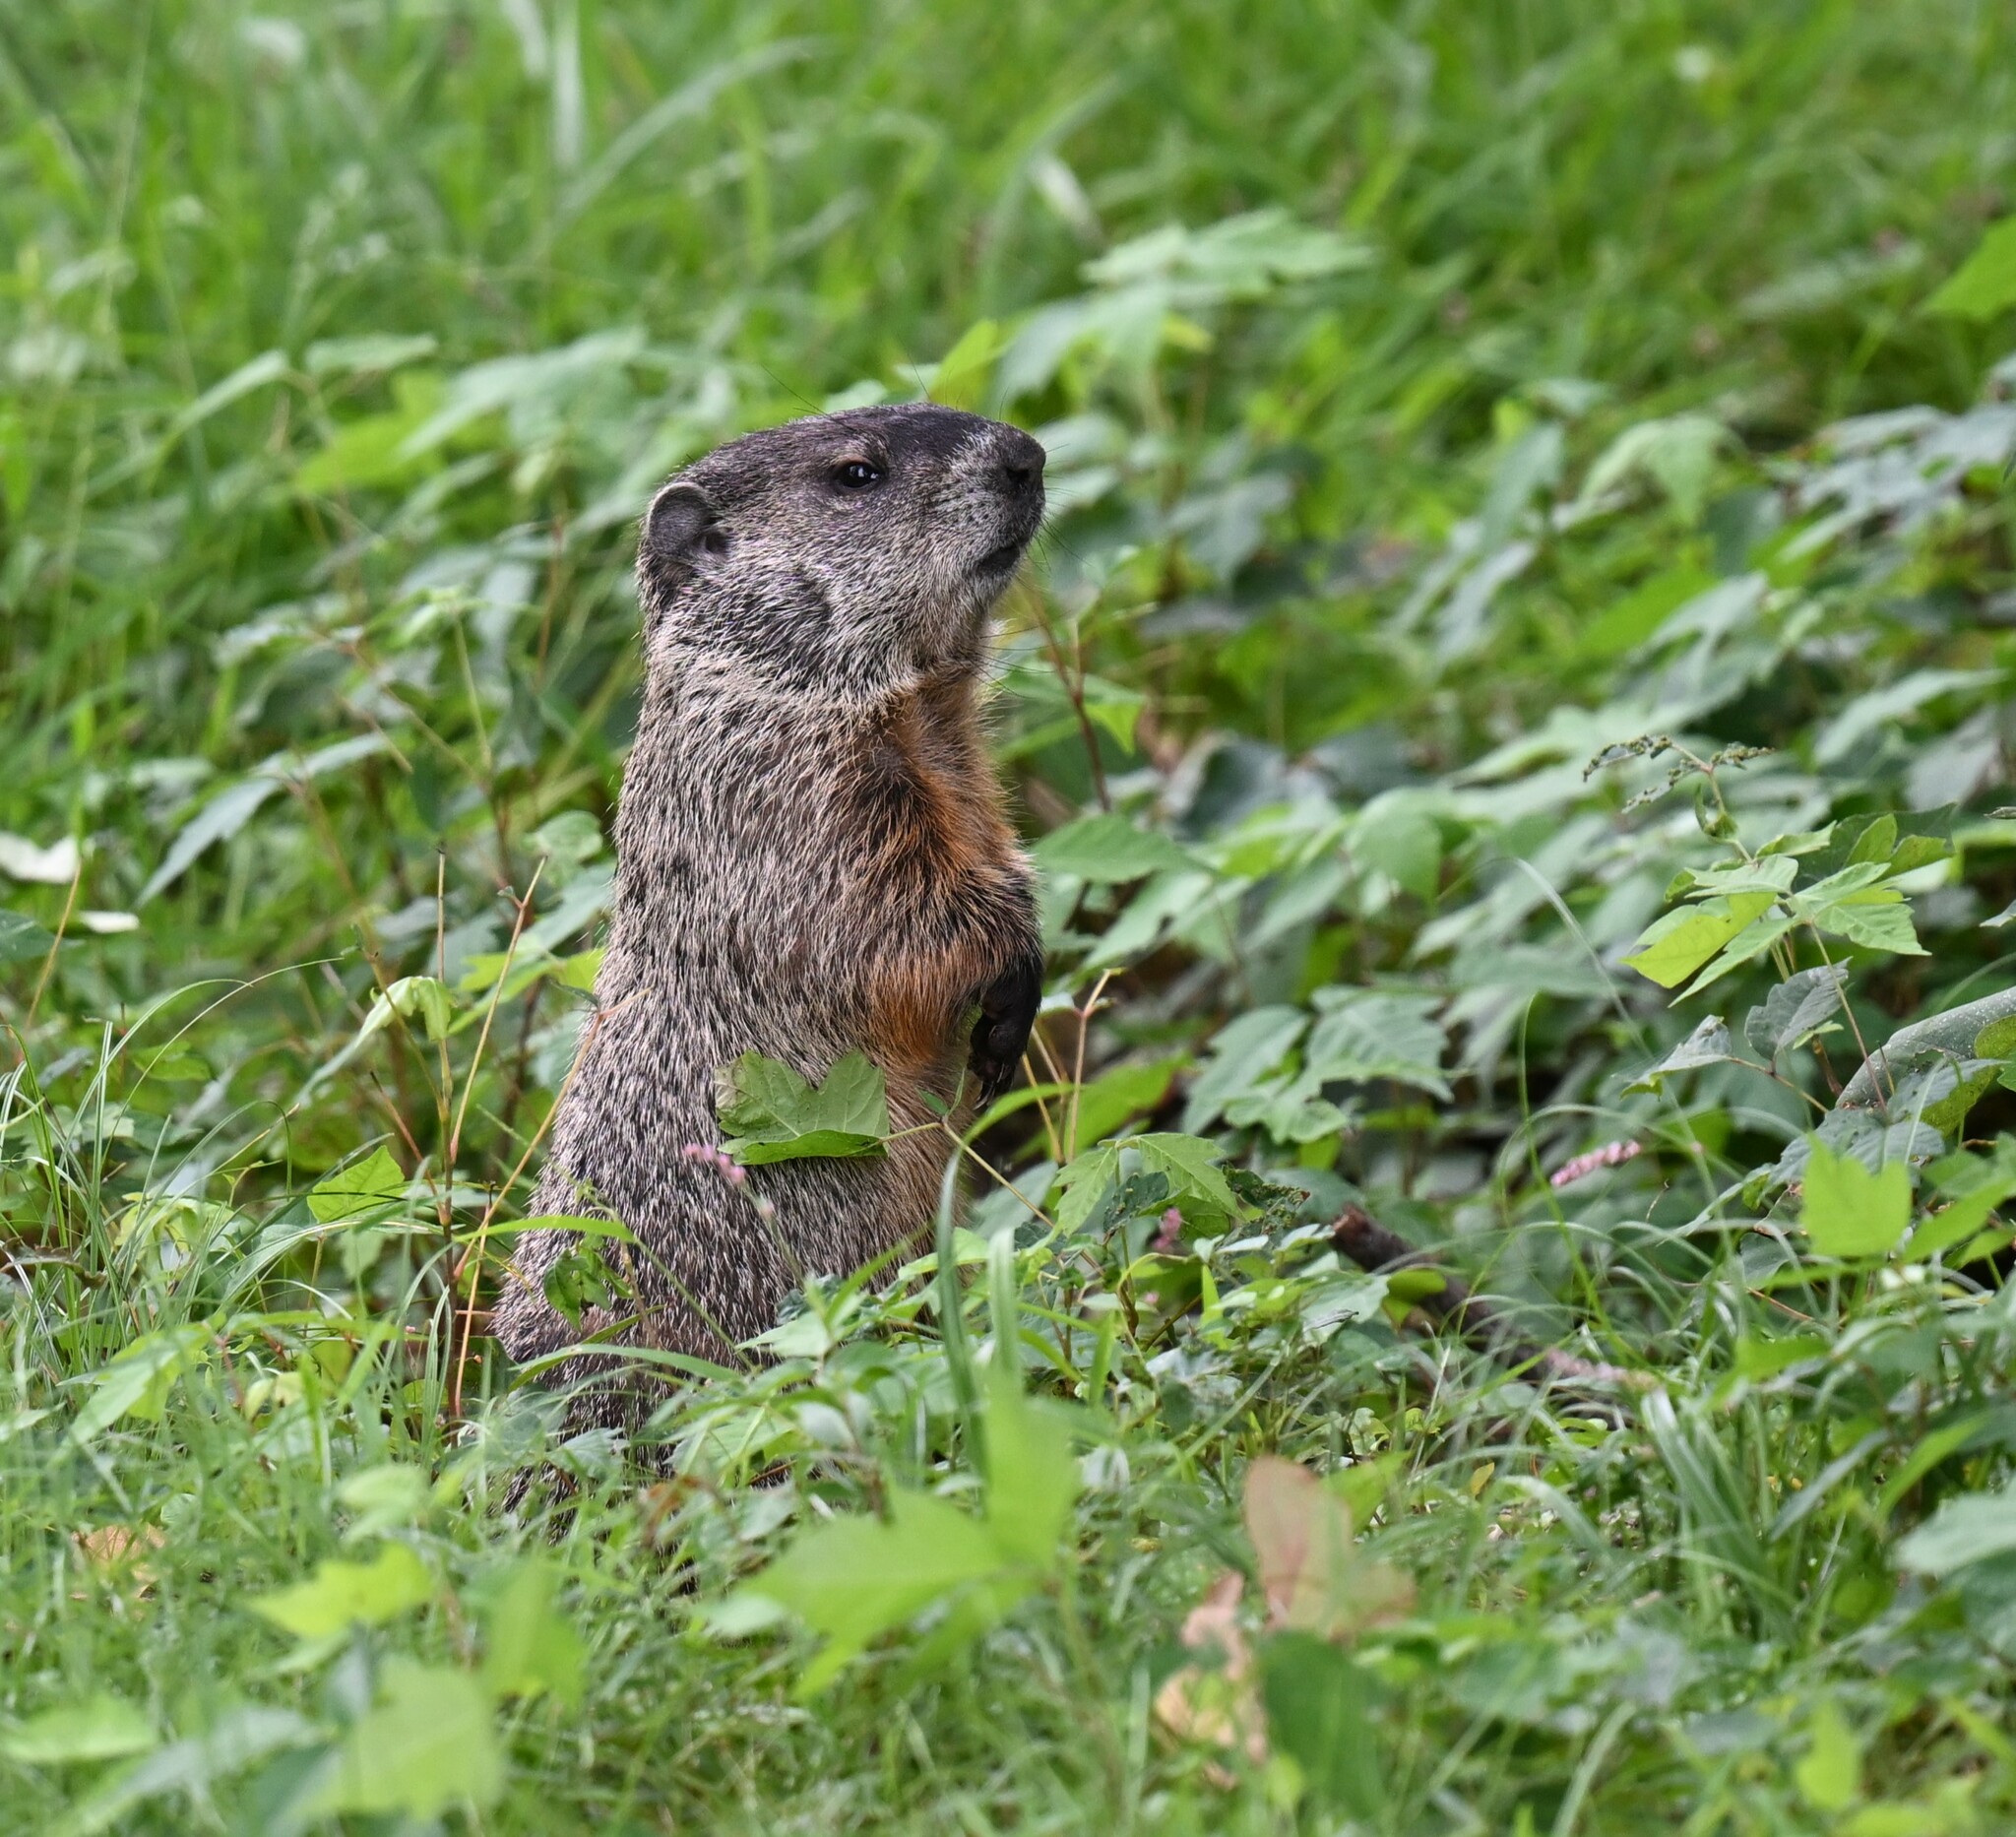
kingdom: Animalia
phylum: Chordata
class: Mammalia
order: Rodentia
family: Sciuridae
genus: Marmota
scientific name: Marmota monax
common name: Groundhog
